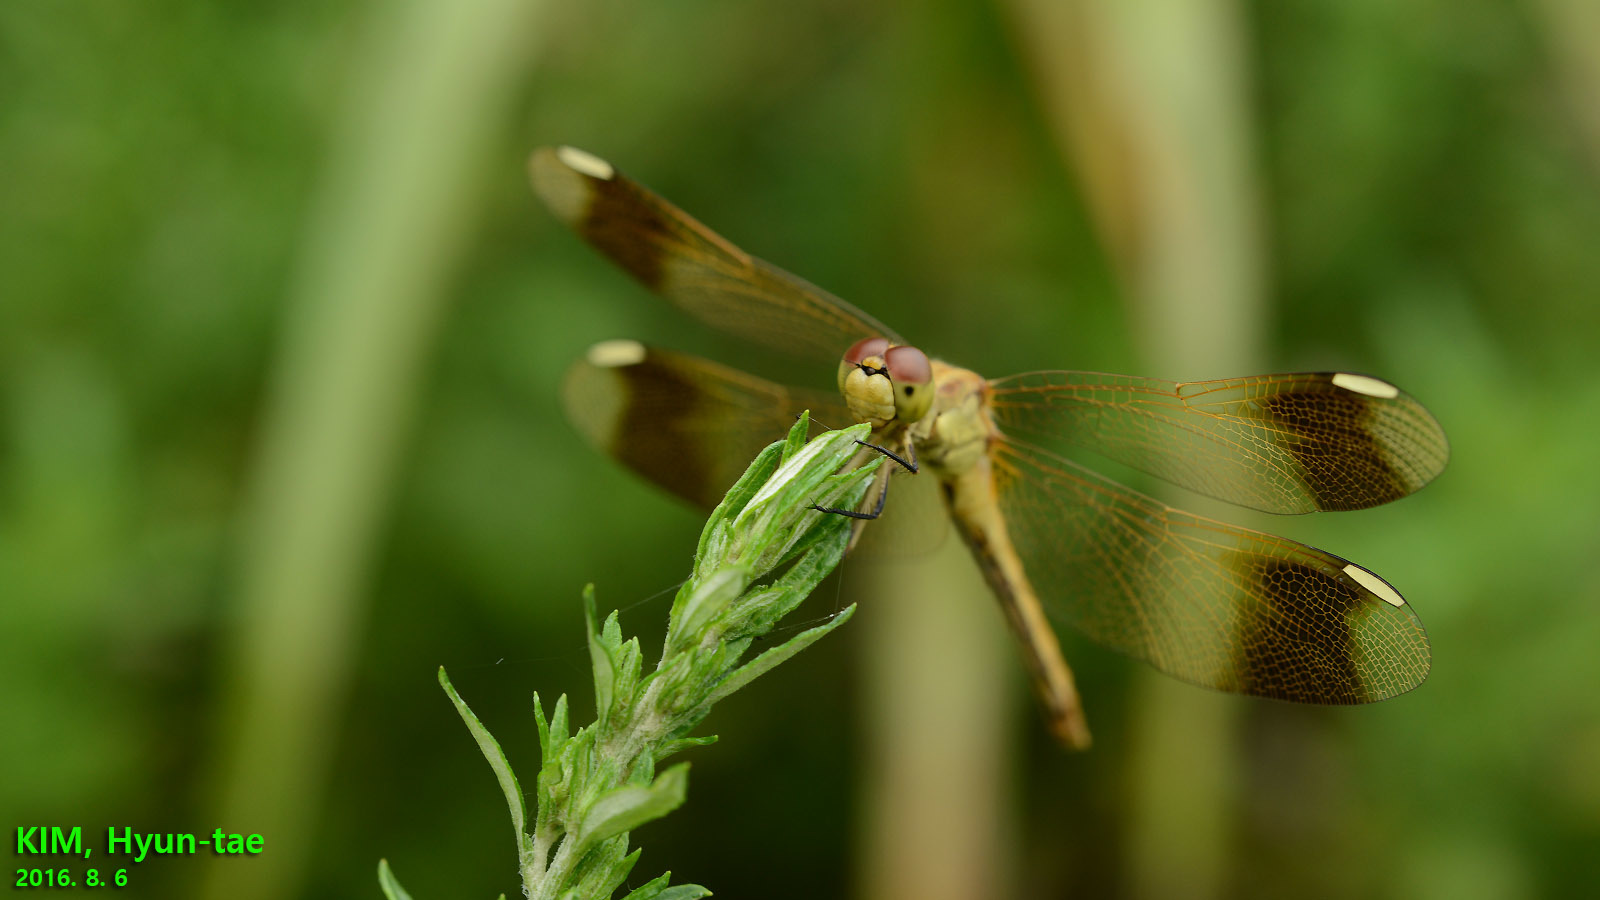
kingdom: Animalia
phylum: Arthropoda
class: Insecta
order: Odonata
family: Libellulidae
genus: Sympetrum
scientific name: Sympetrum pedemontanum
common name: Banded darter
